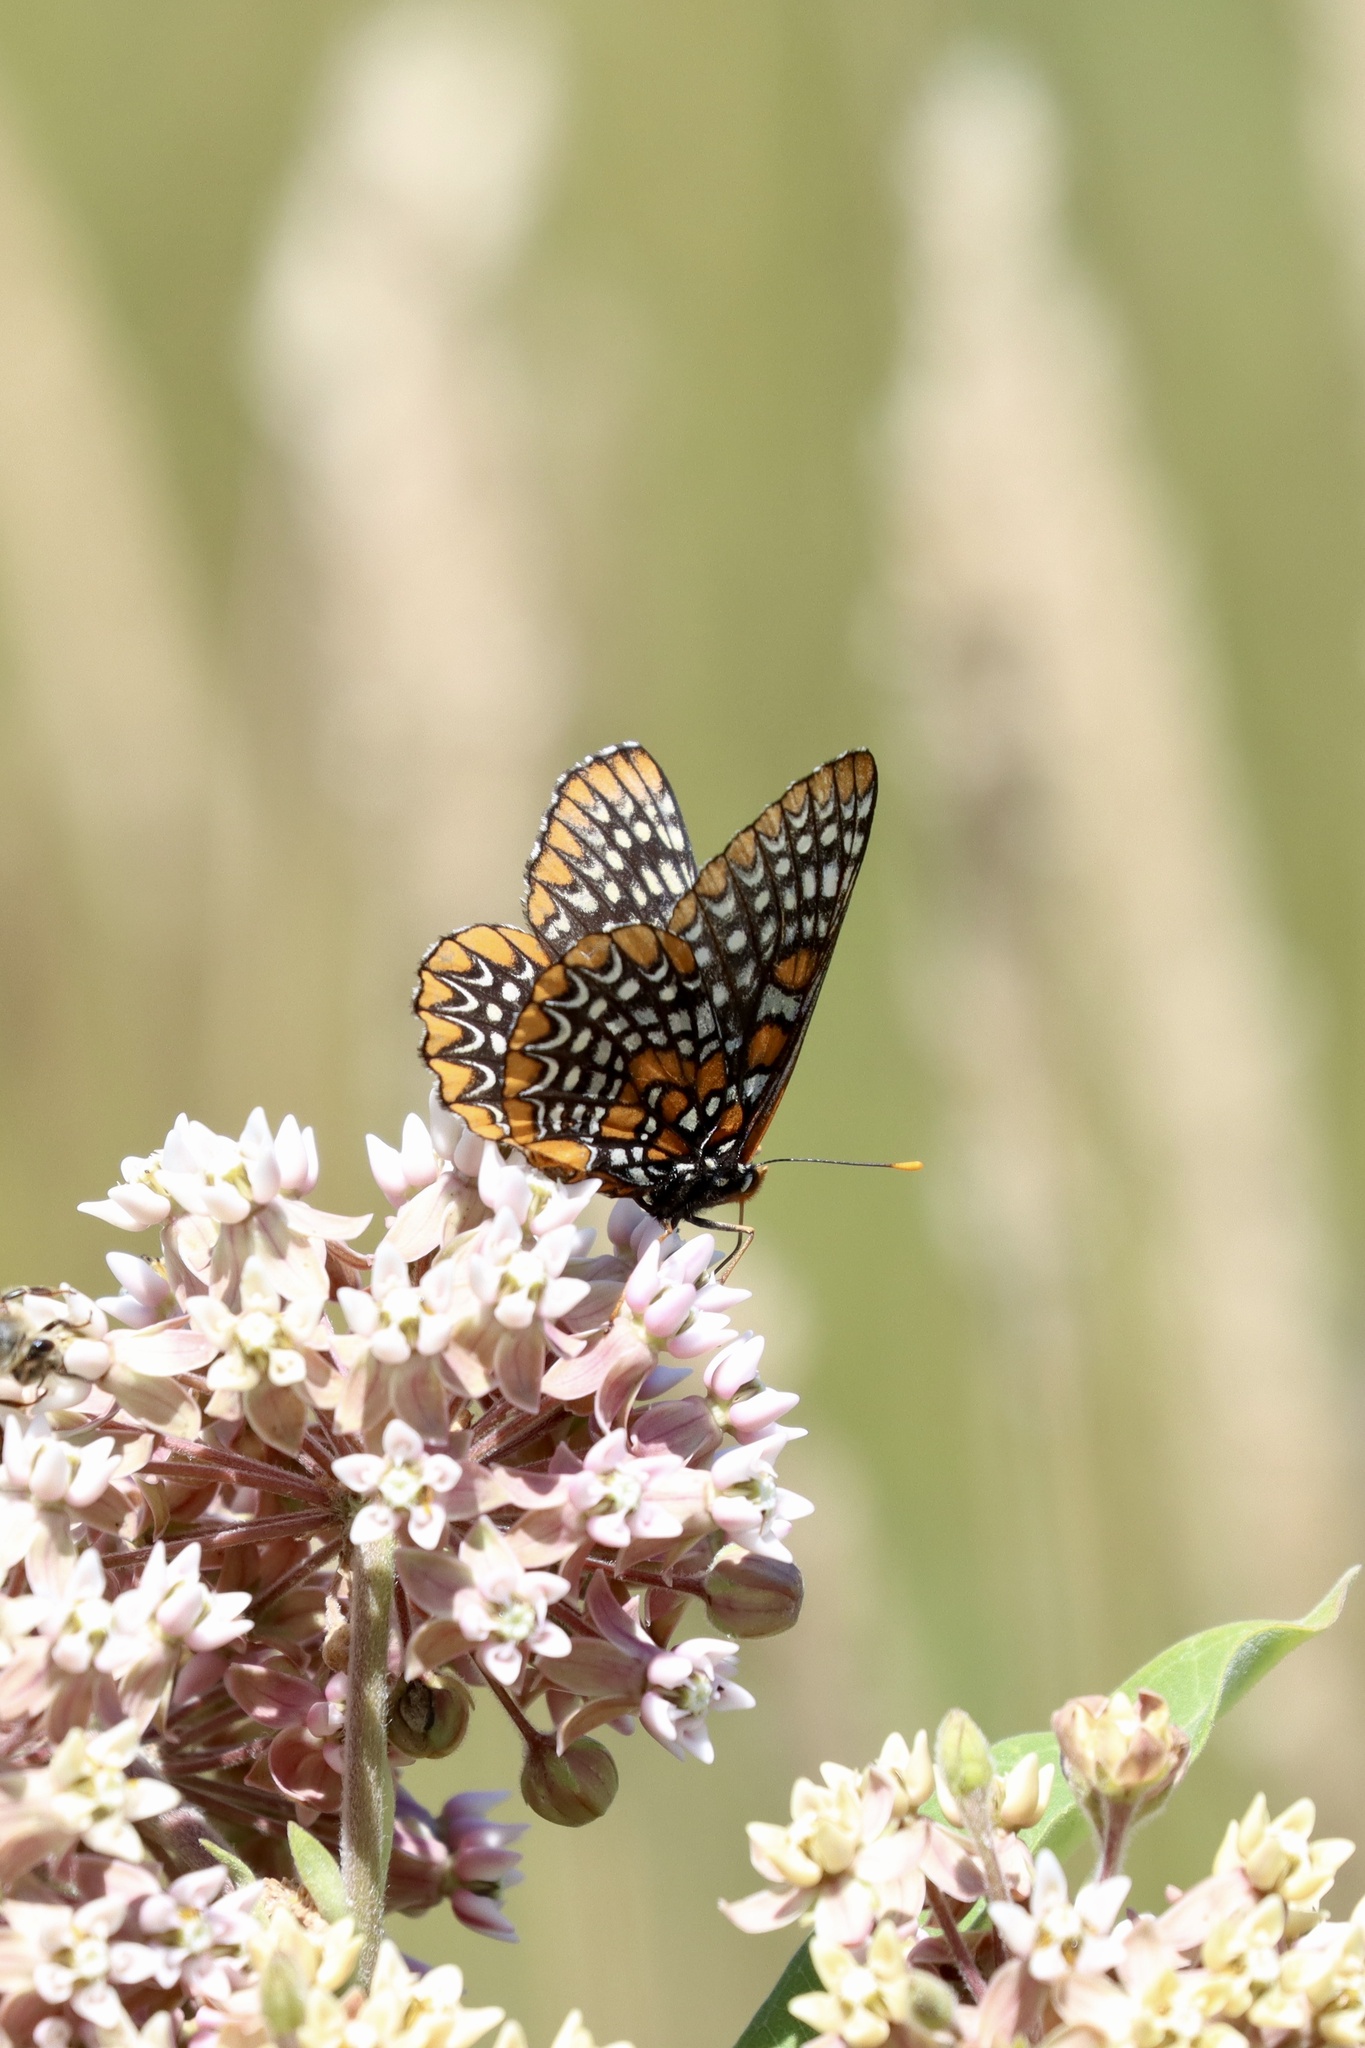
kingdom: Animalia
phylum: Arthropoda
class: Insecta
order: Lepidoptera
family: Nymphalidae
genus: Euphydryas
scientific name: Euphydryas phaeton
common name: Baltimore checkerspot
